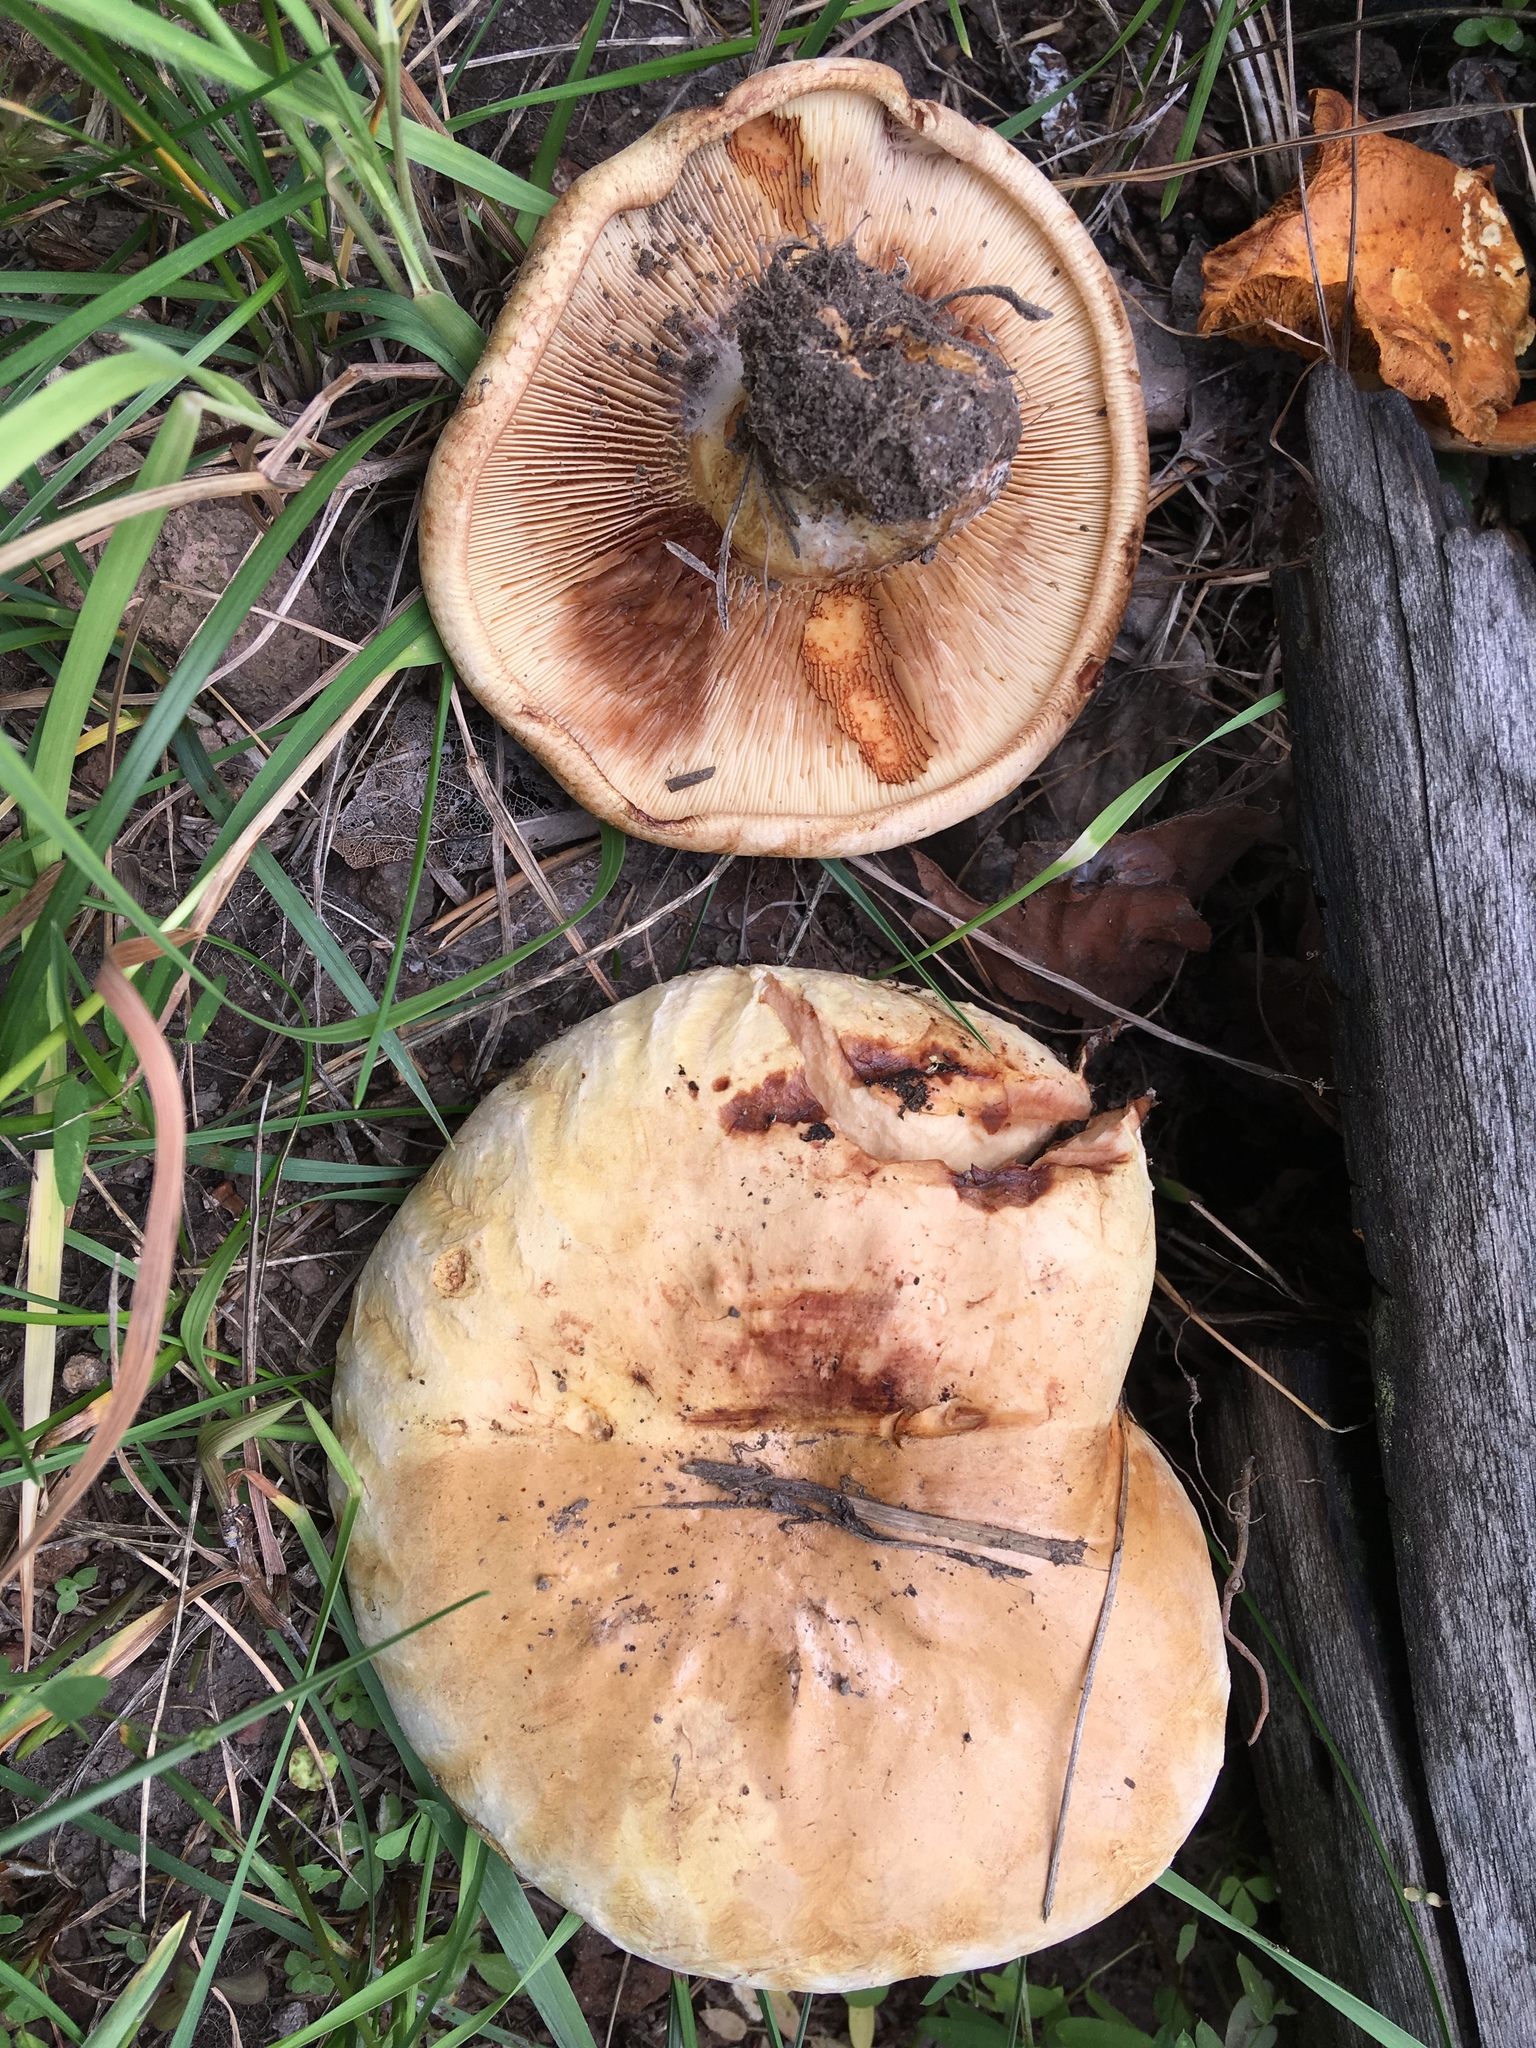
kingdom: Fungi
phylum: Basidiomycota
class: Agaricomycetes
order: Boletales
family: Paxillaceae
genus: Paxillus
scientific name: Paxillus obscurisporus
